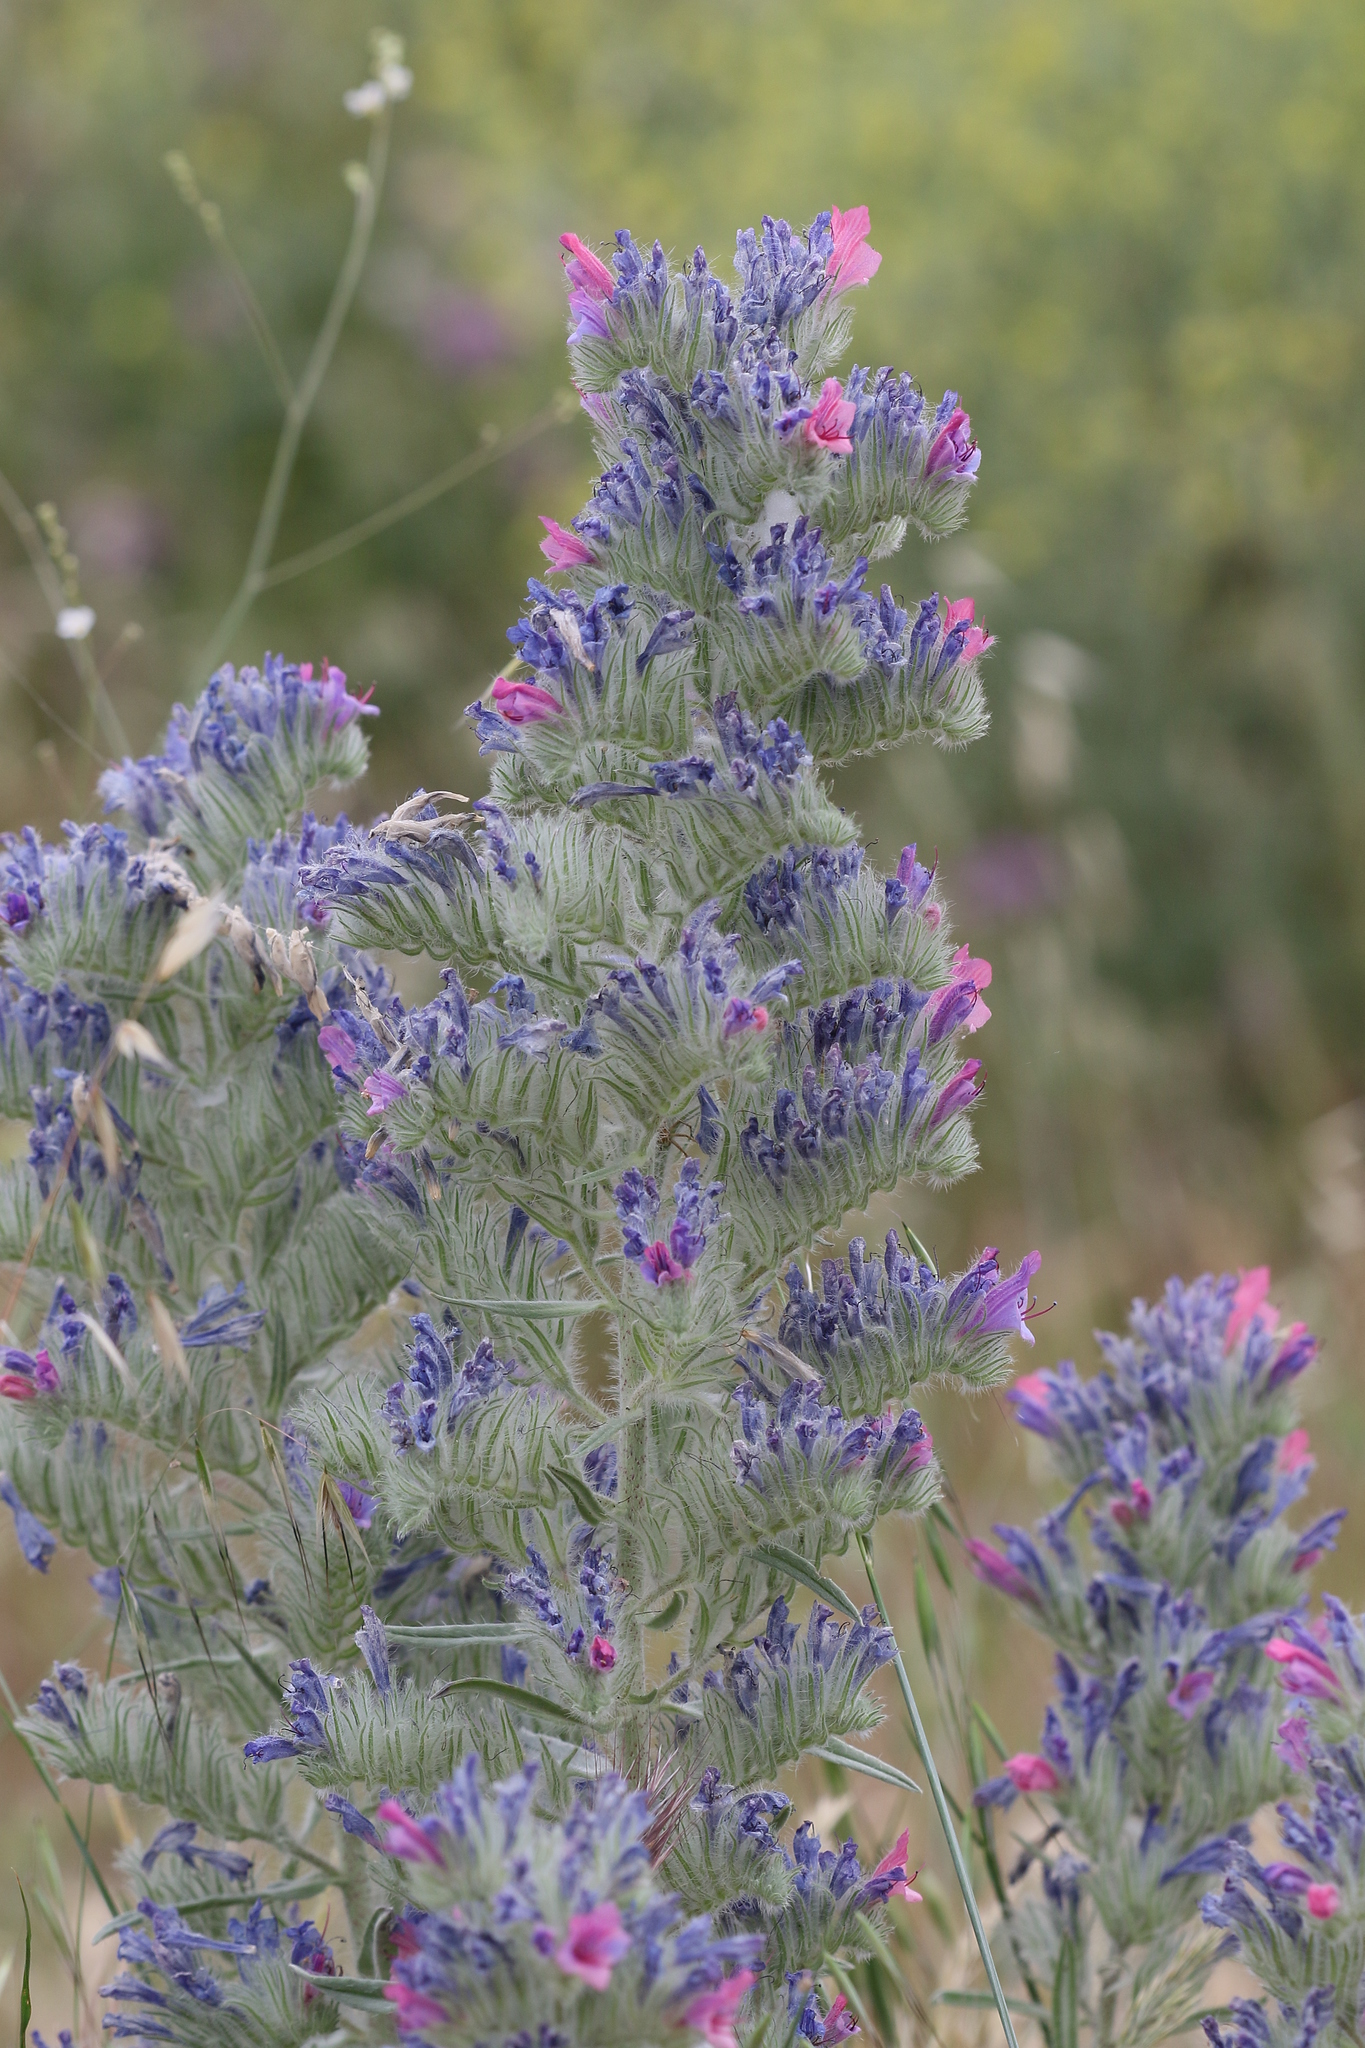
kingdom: Plantae
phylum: Tracheophyta
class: Magnoliopsida
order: Boraginales
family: Boraginaceae
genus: Echium
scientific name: Echium albicans
